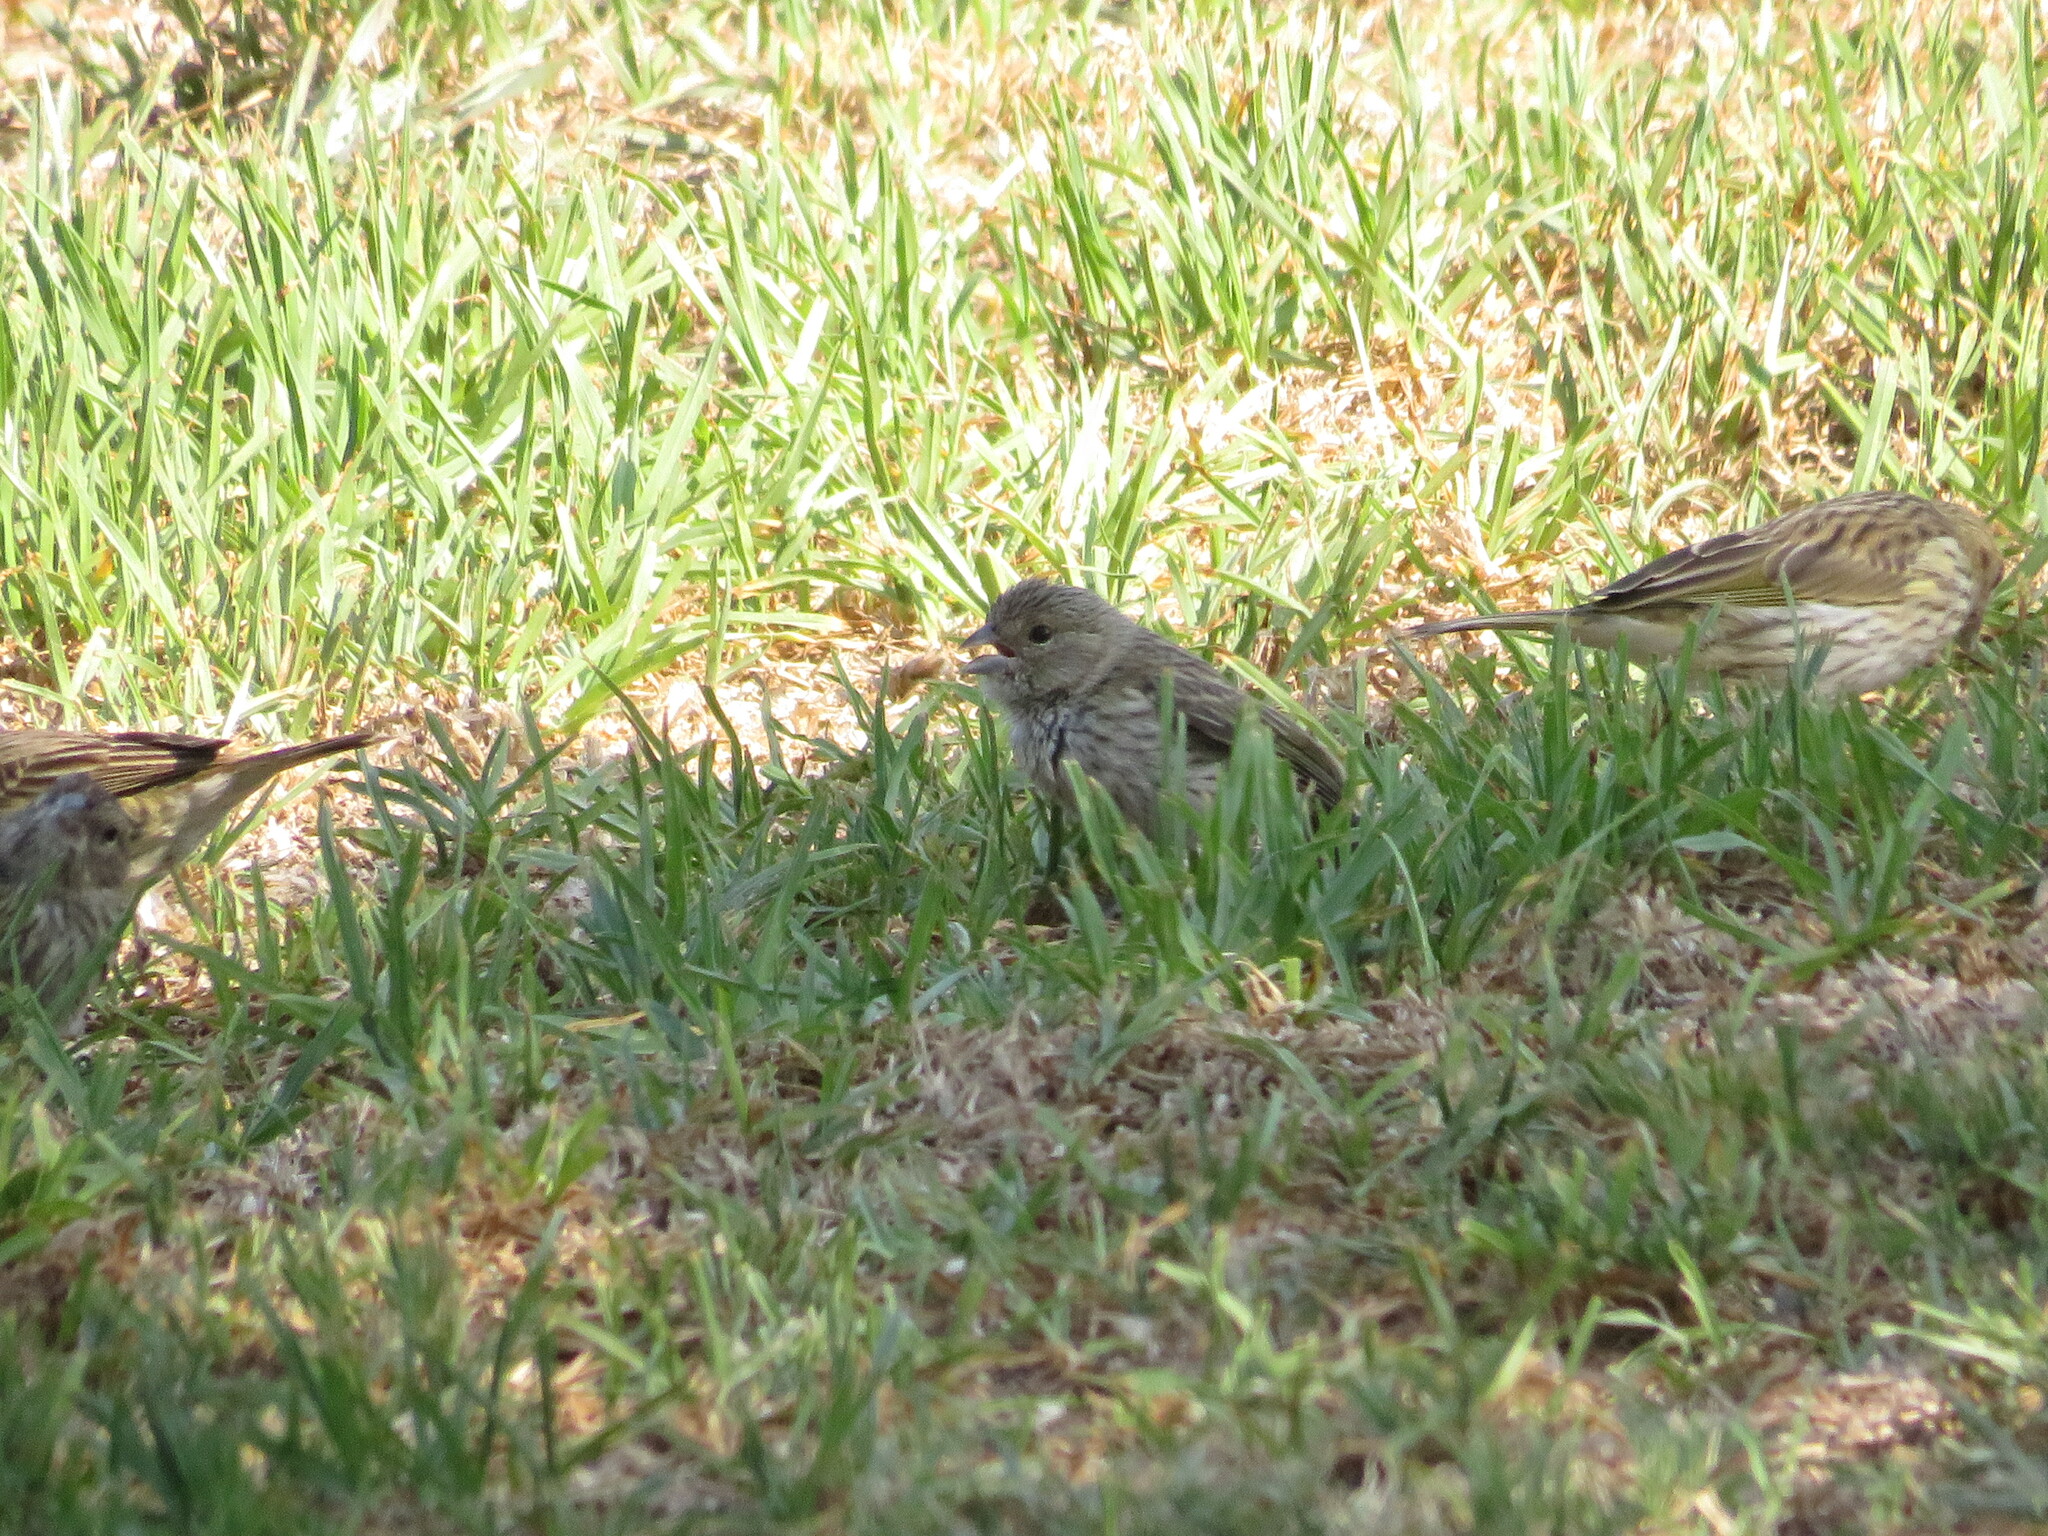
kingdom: Animalia
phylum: Chordata
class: Aves
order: Passeriformes
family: Thraupidae
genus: Sicalis
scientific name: Sicalis flaveola
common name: Saffron finch
